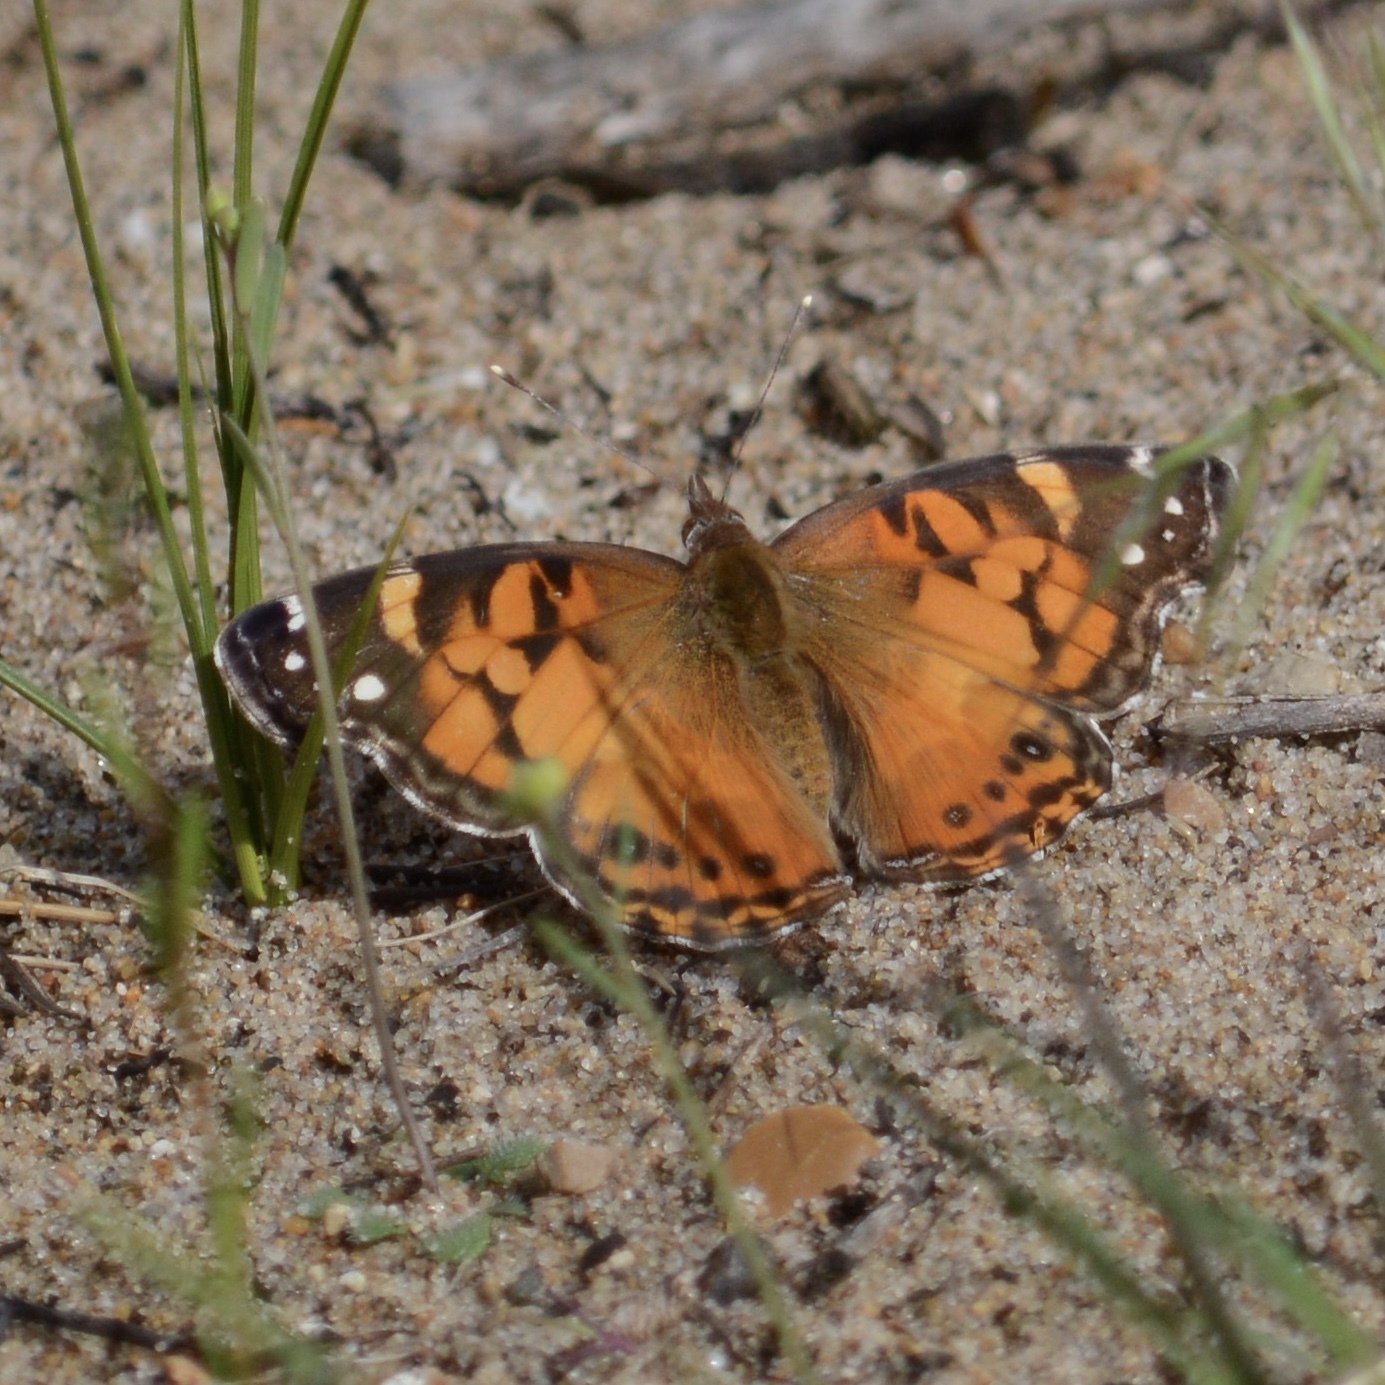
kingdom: Animalia
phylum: Arthropoda
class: Insecta
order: Lepidoptera
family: Nymphalidae
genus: Vanessa
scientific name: Vanessa virginiensis
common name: American lady
